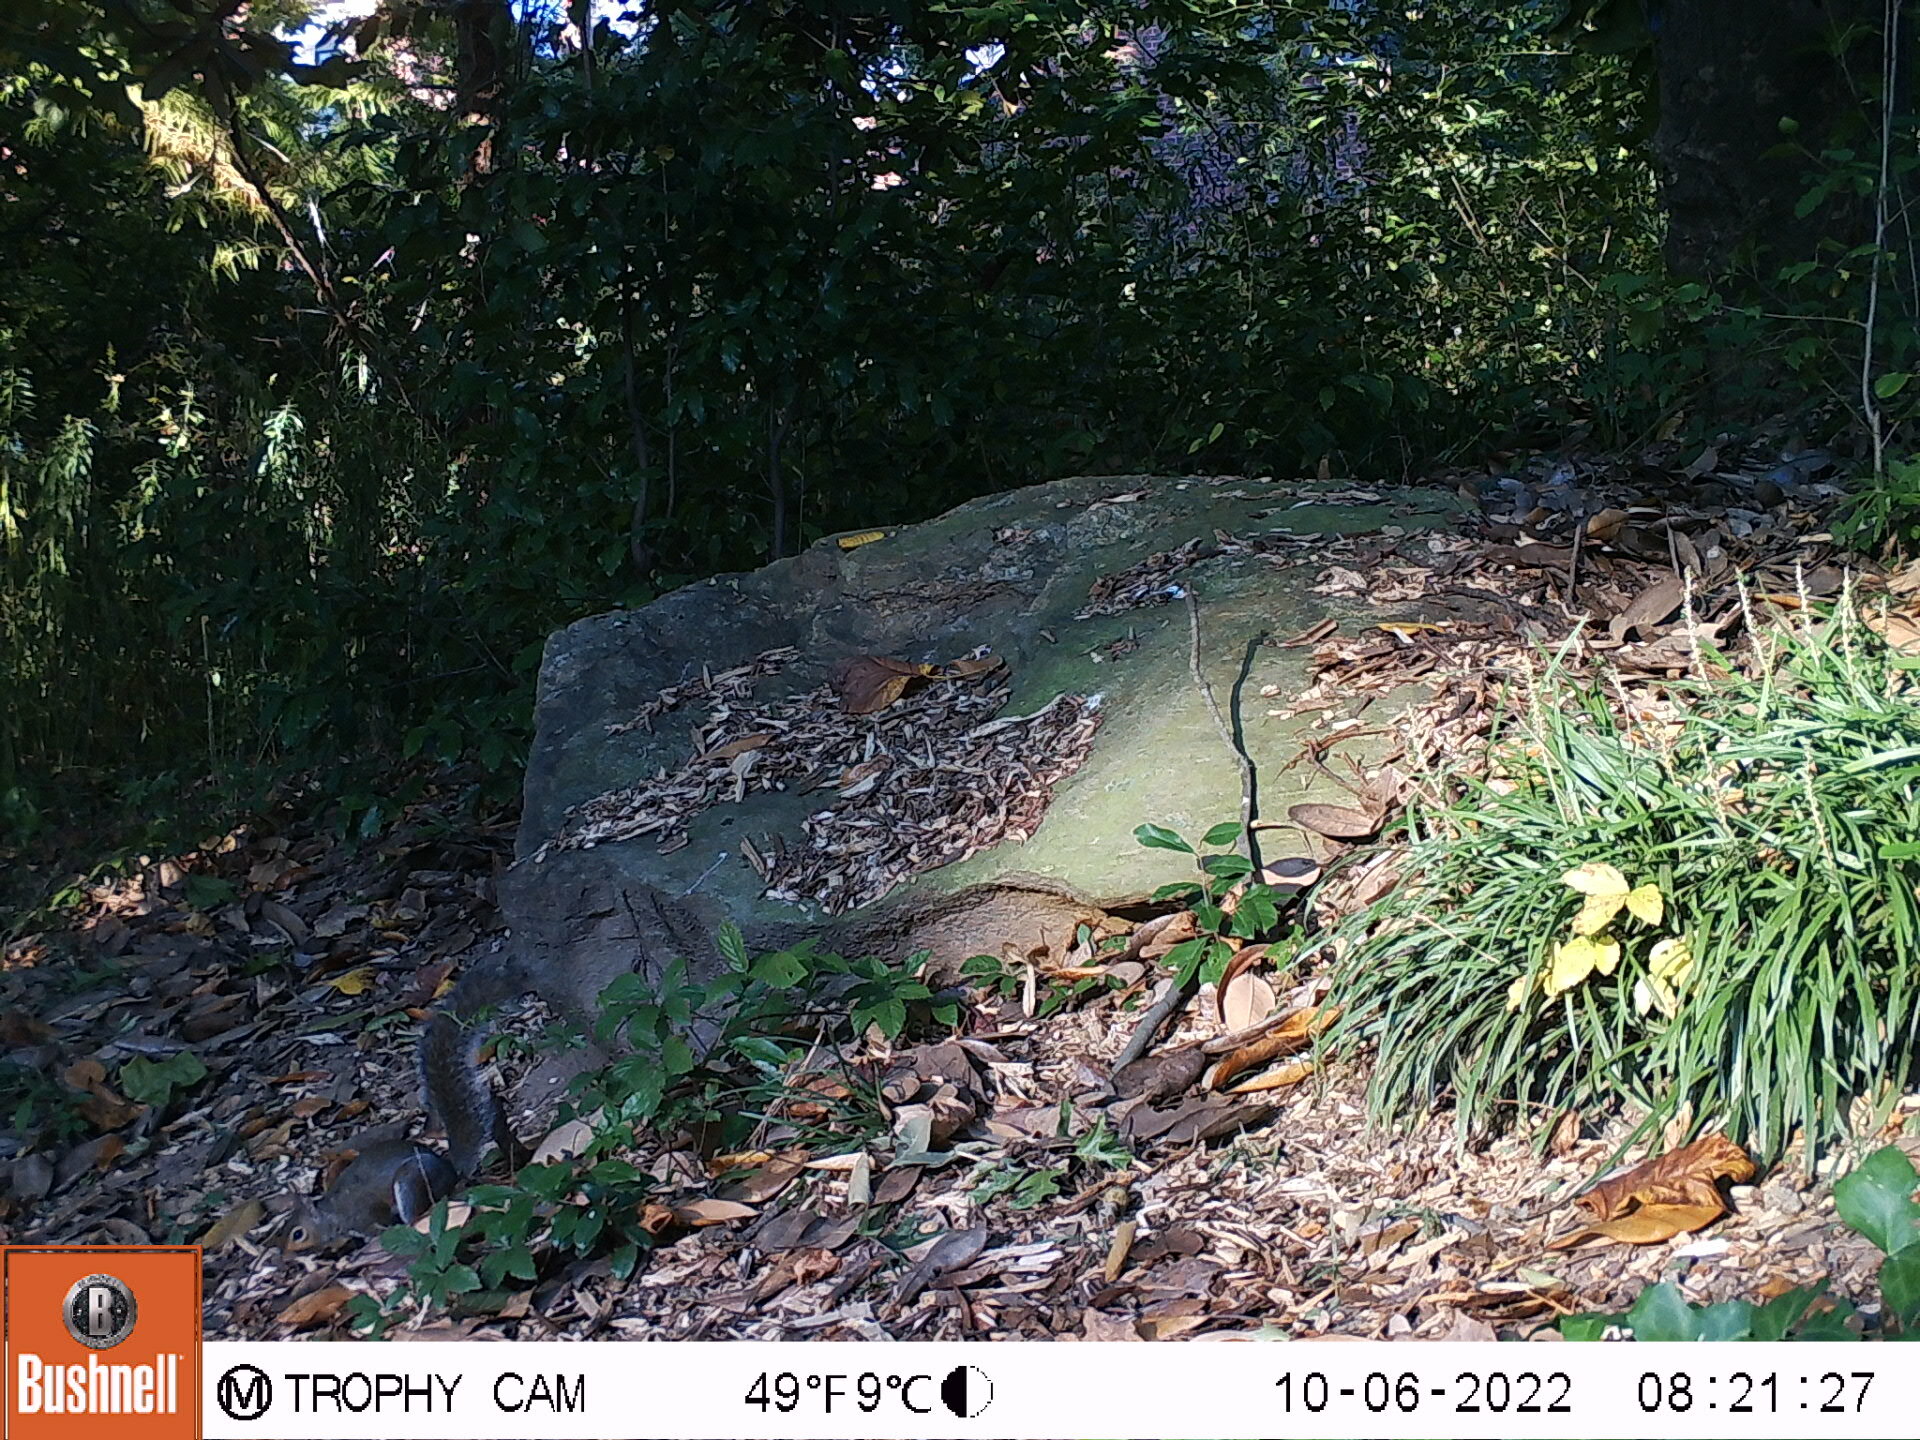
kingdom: Animalia
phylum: Chordata
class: Mammalia
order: Rodentia
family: Sciuridae
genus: Sciurus
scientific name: Sciurus carolinensis
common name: Eastern gray squirrel
